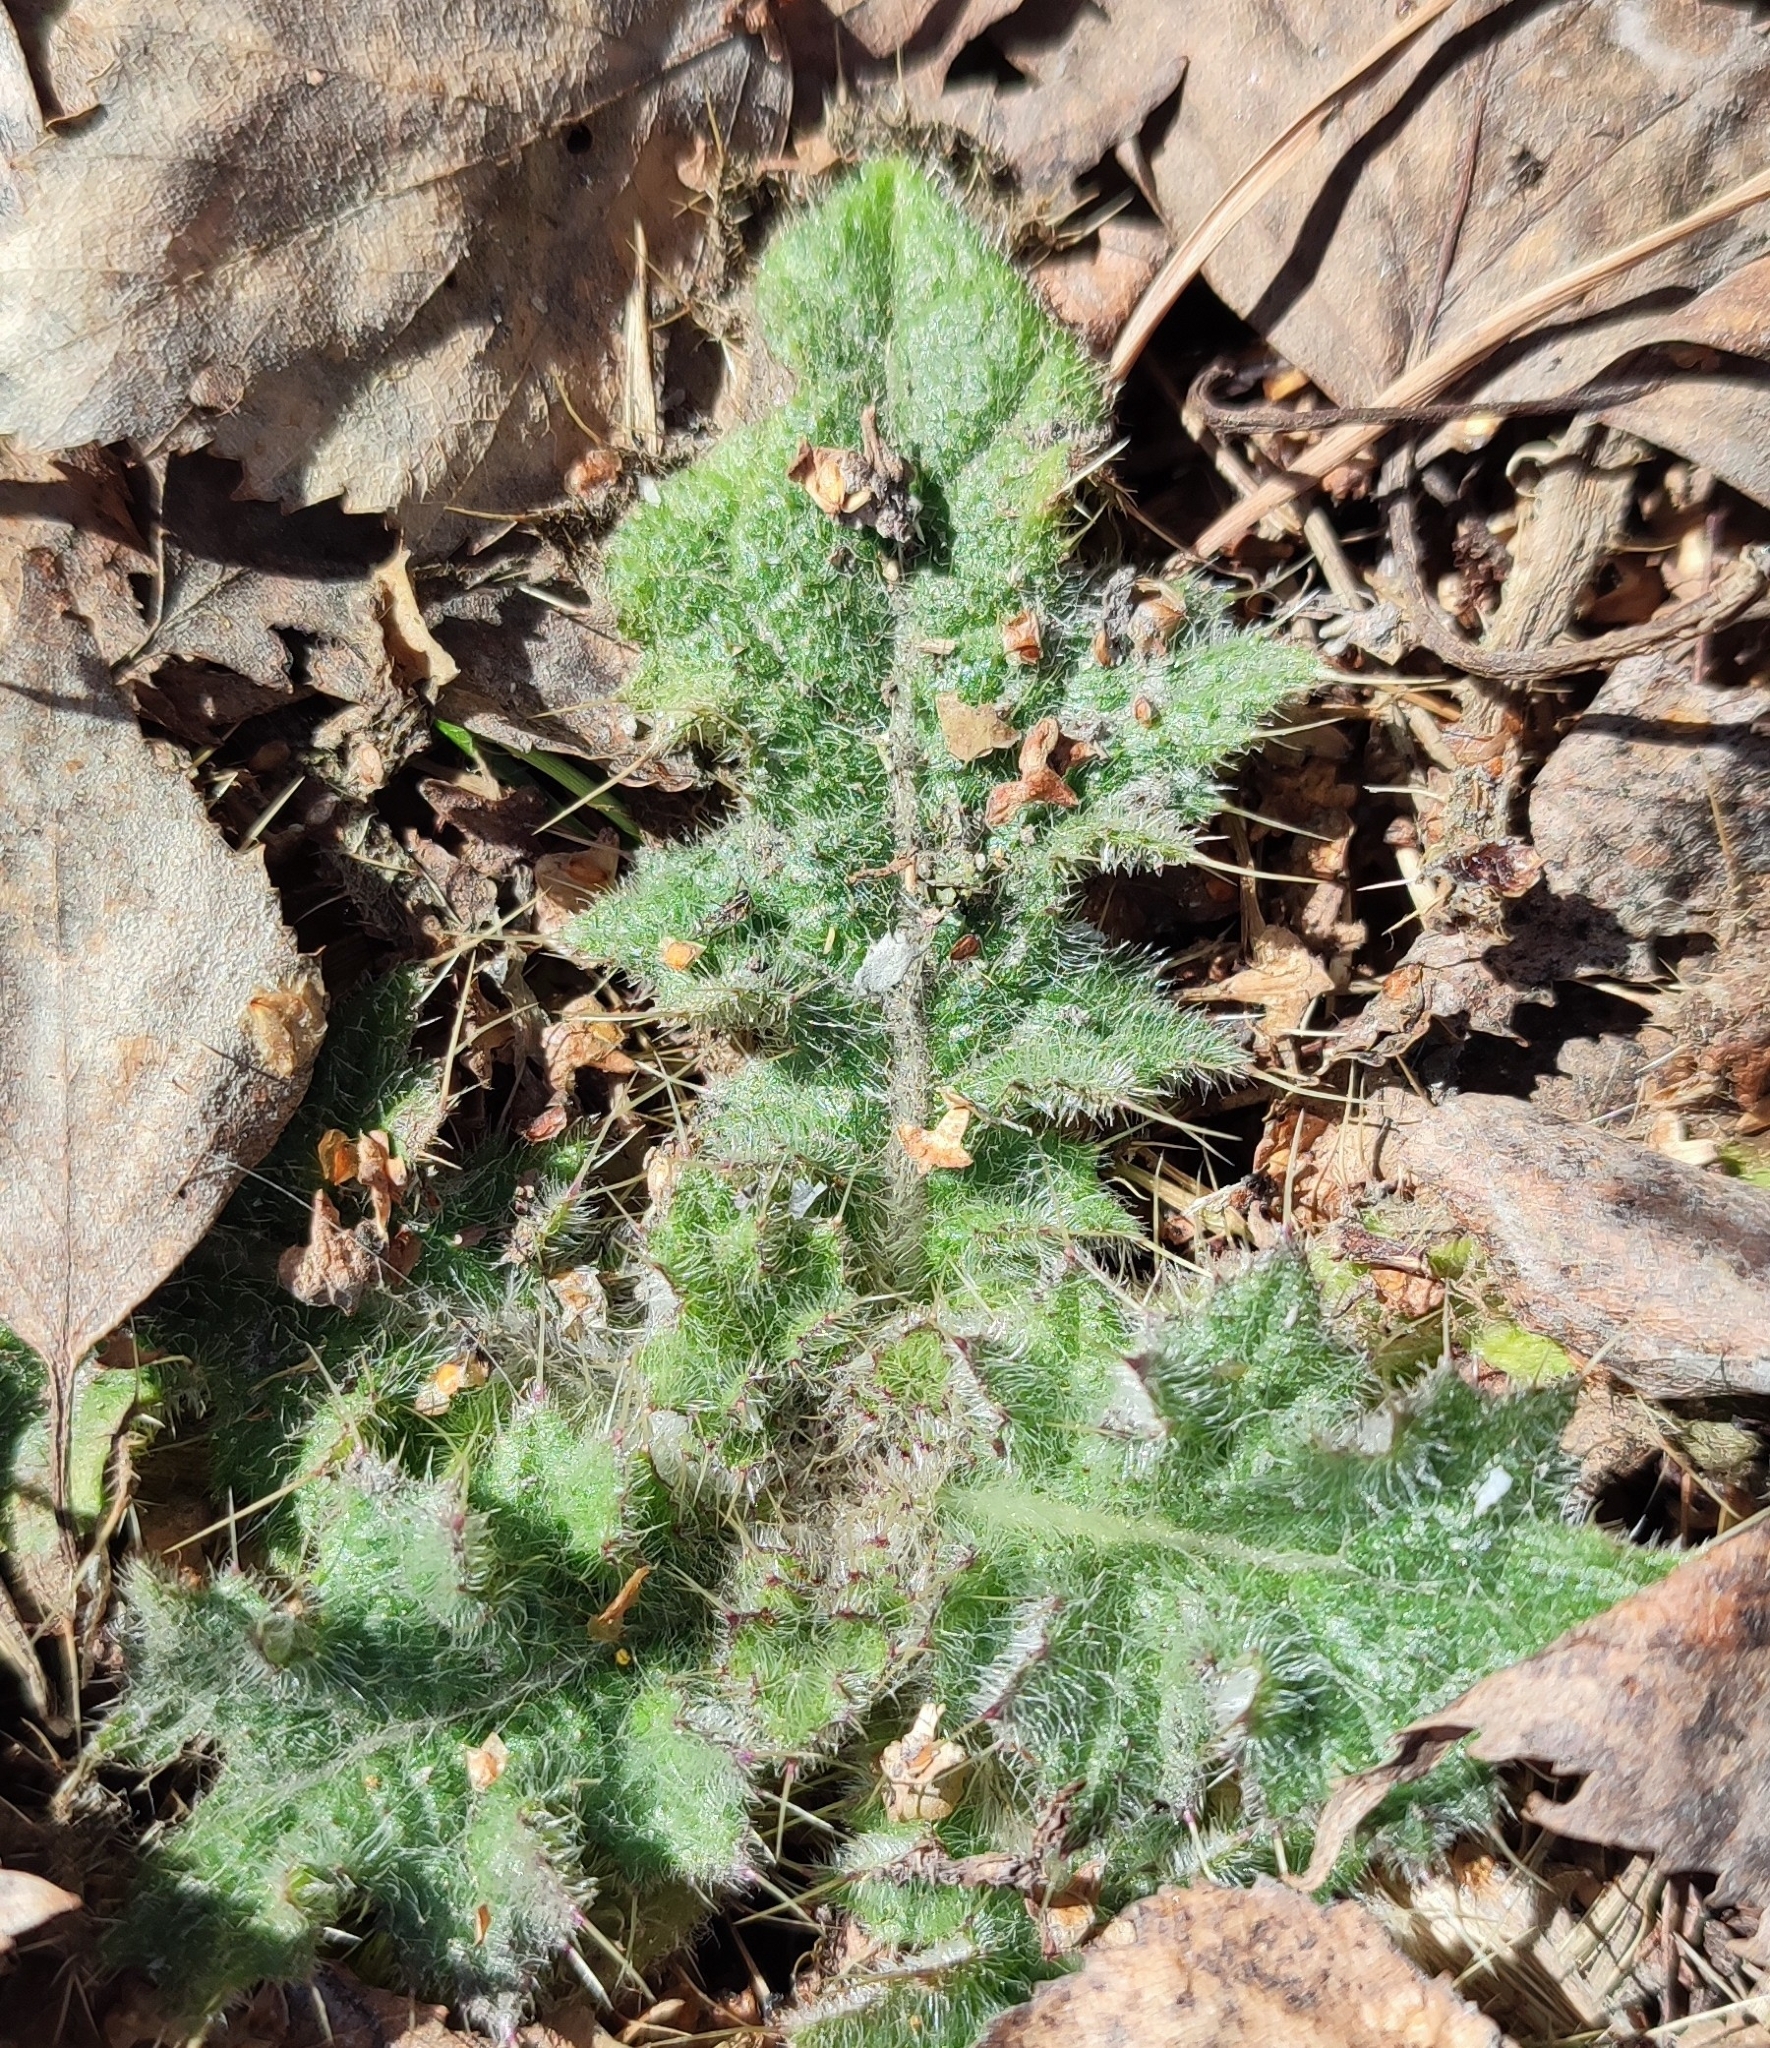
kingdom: Plantae
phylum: Tracheophyta
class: Magnoliopsida
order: Asterales
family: Asteraceae
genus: Cirsium
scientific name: Cirsium vulgare
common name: Bull thistle
